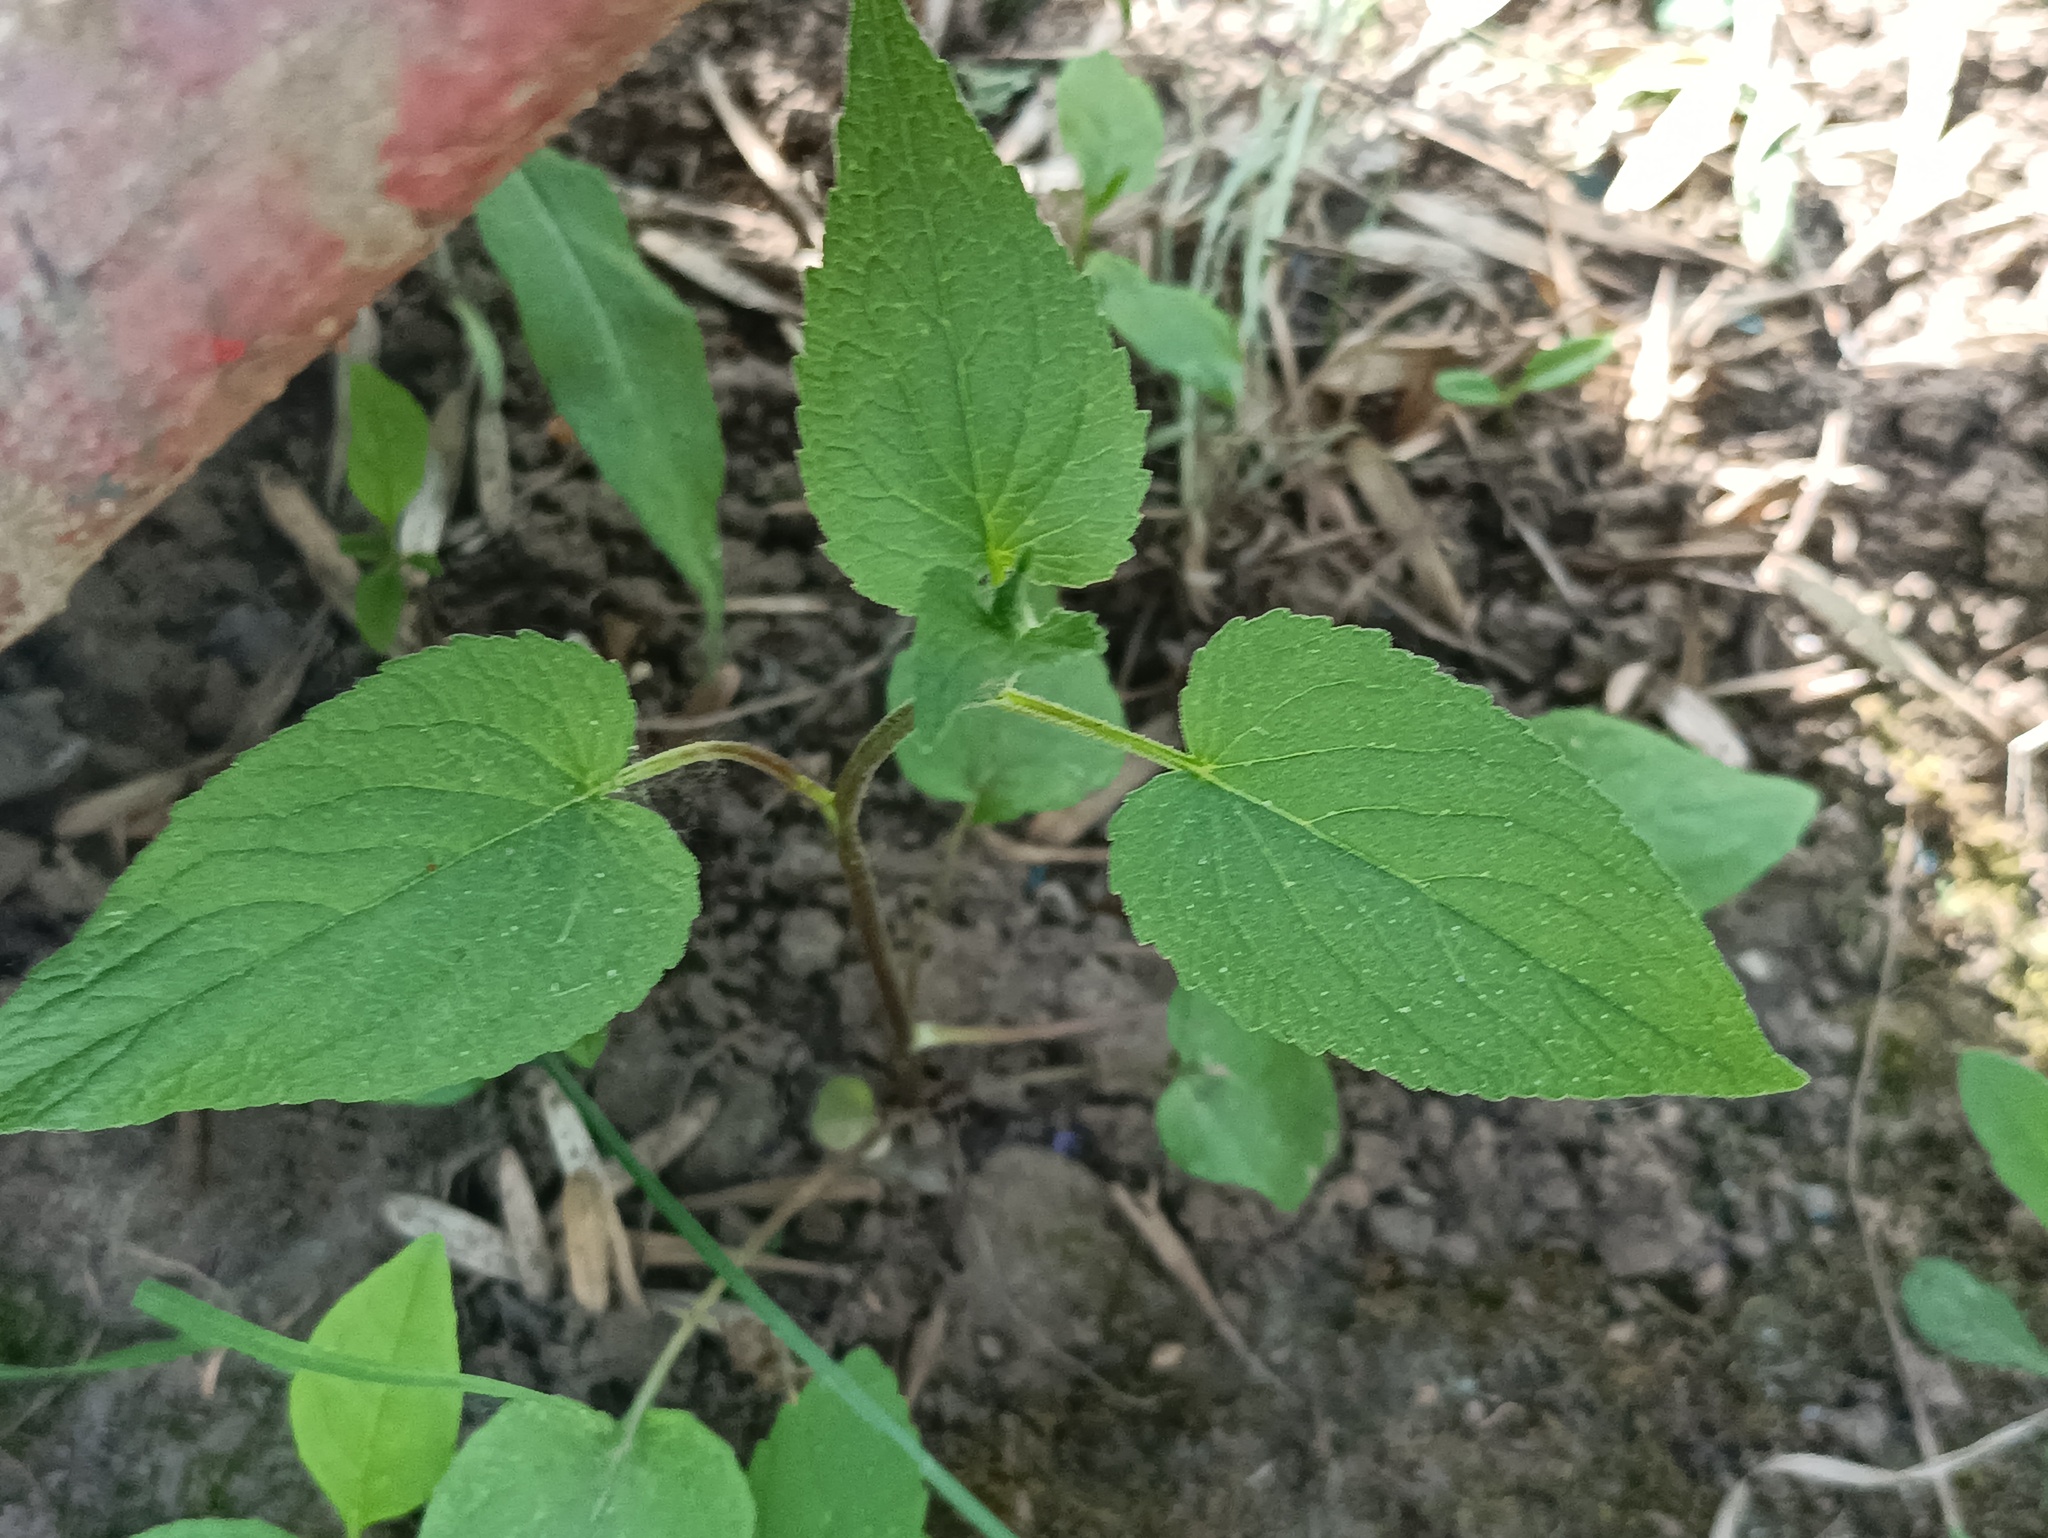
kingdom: Plantae
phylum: Tracheophyta
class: Magnoliopsida
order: Asterales
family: Campanulaceae
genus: Campanula
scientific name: Campanula rapunculoides
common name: Creeping bellflower
